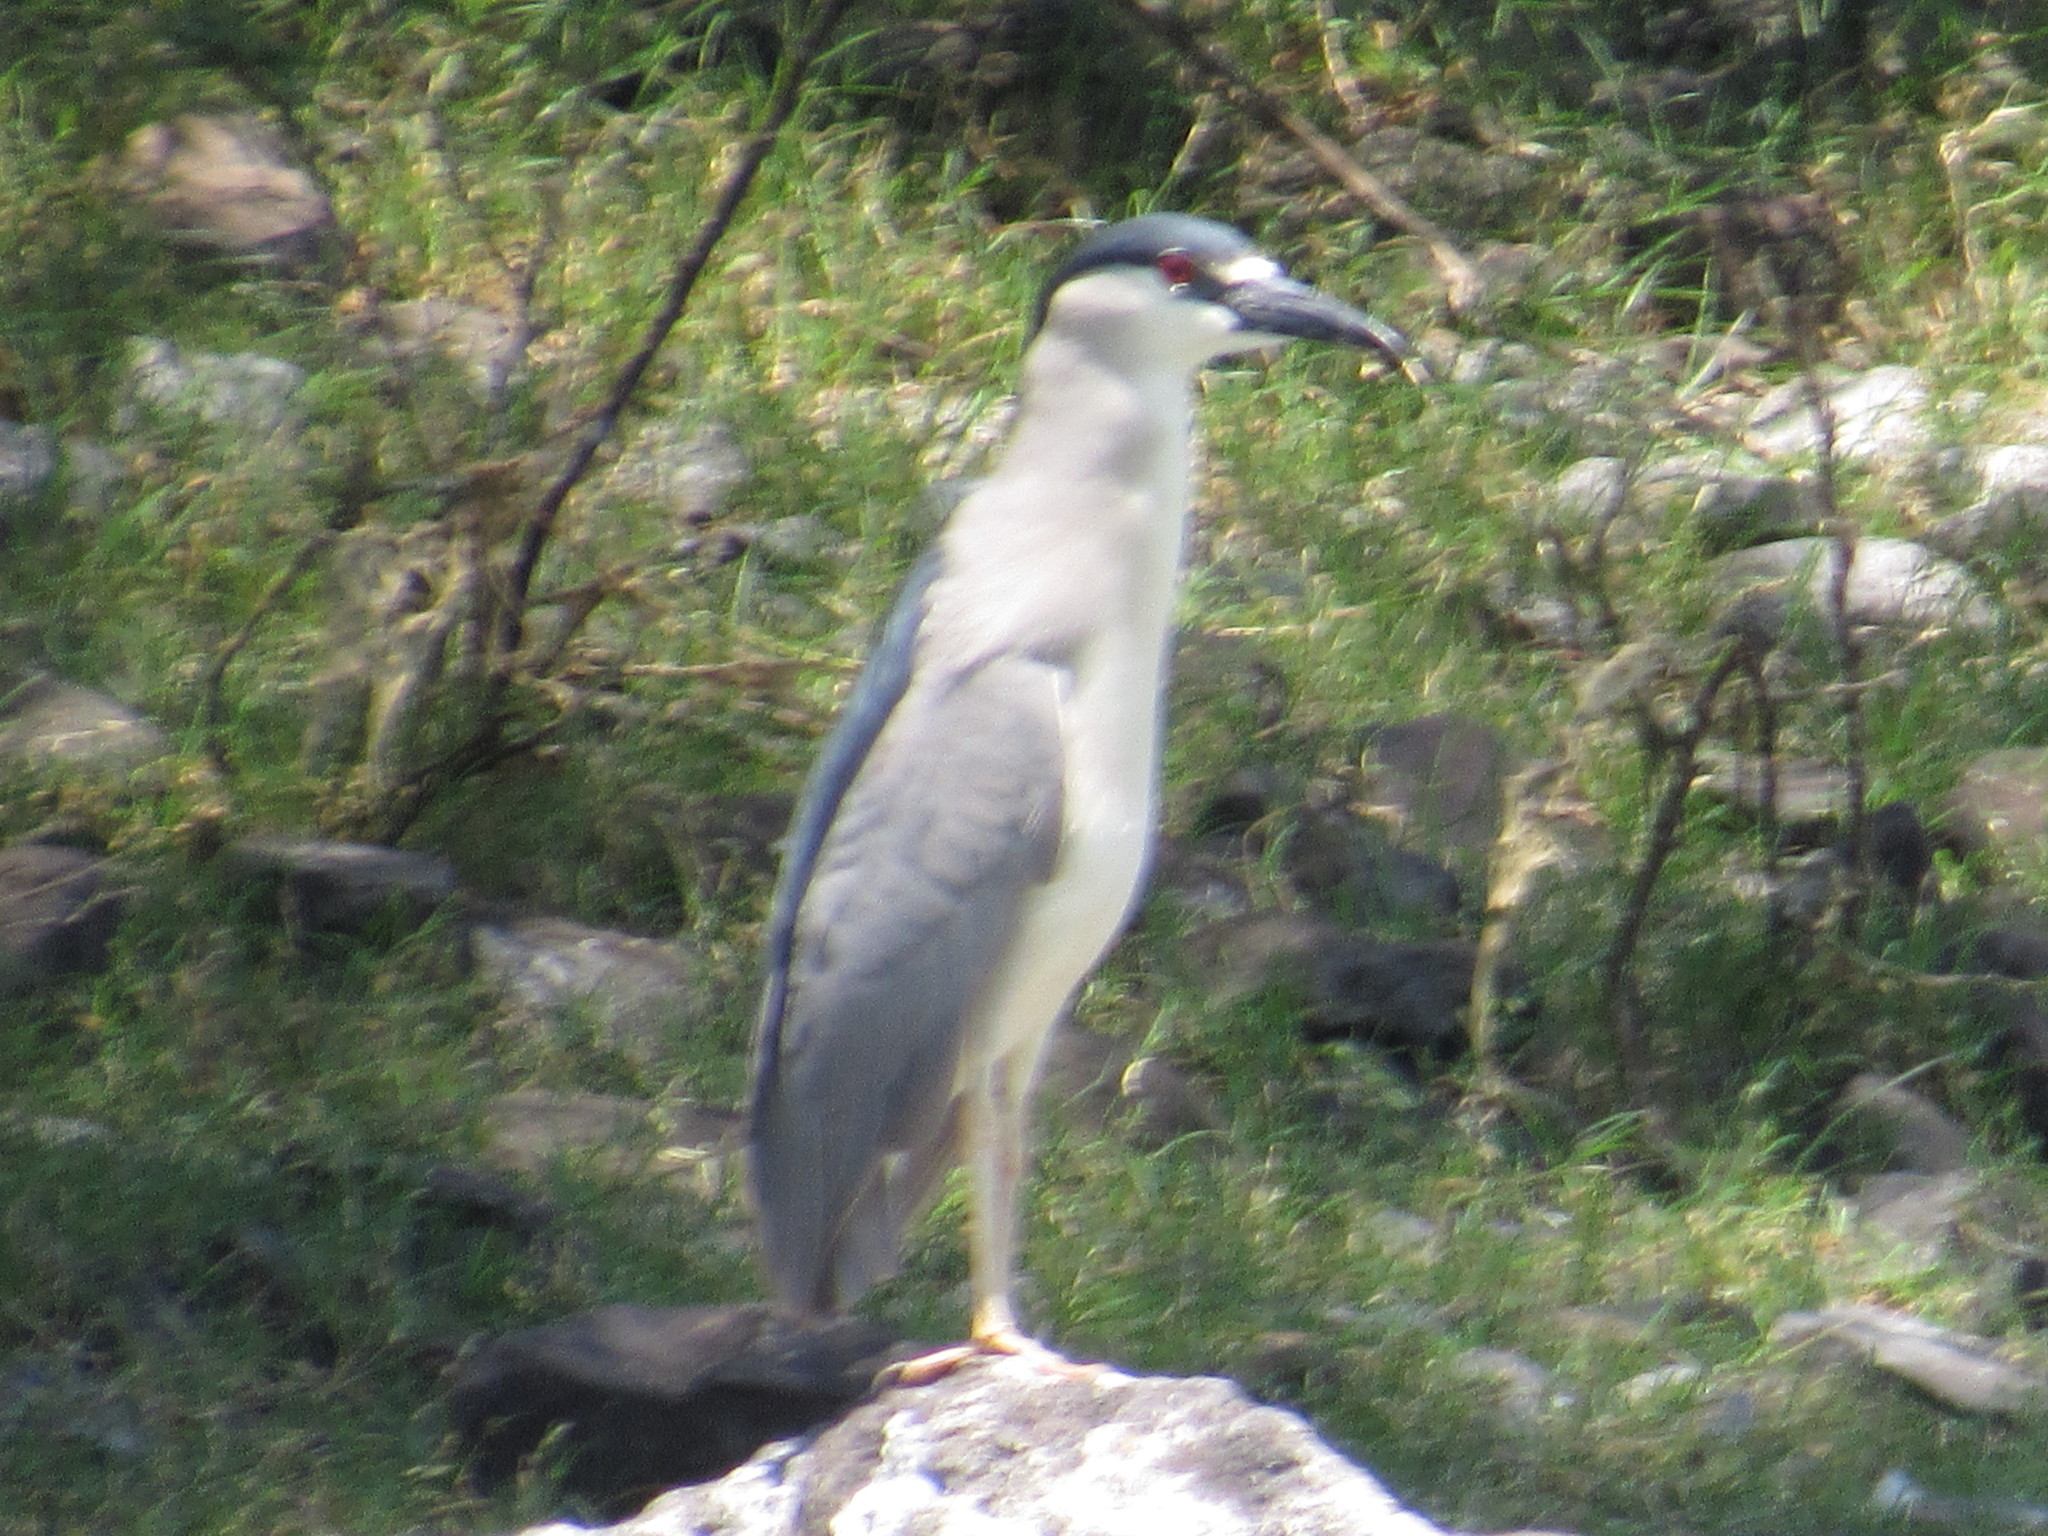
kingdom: Animalia
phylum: Chordata
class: Aves
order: Pelecaniformes
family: Ardeidae
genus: Nycticorax
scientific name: Nycticorax nycticorax
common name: Black-crowned night heron
